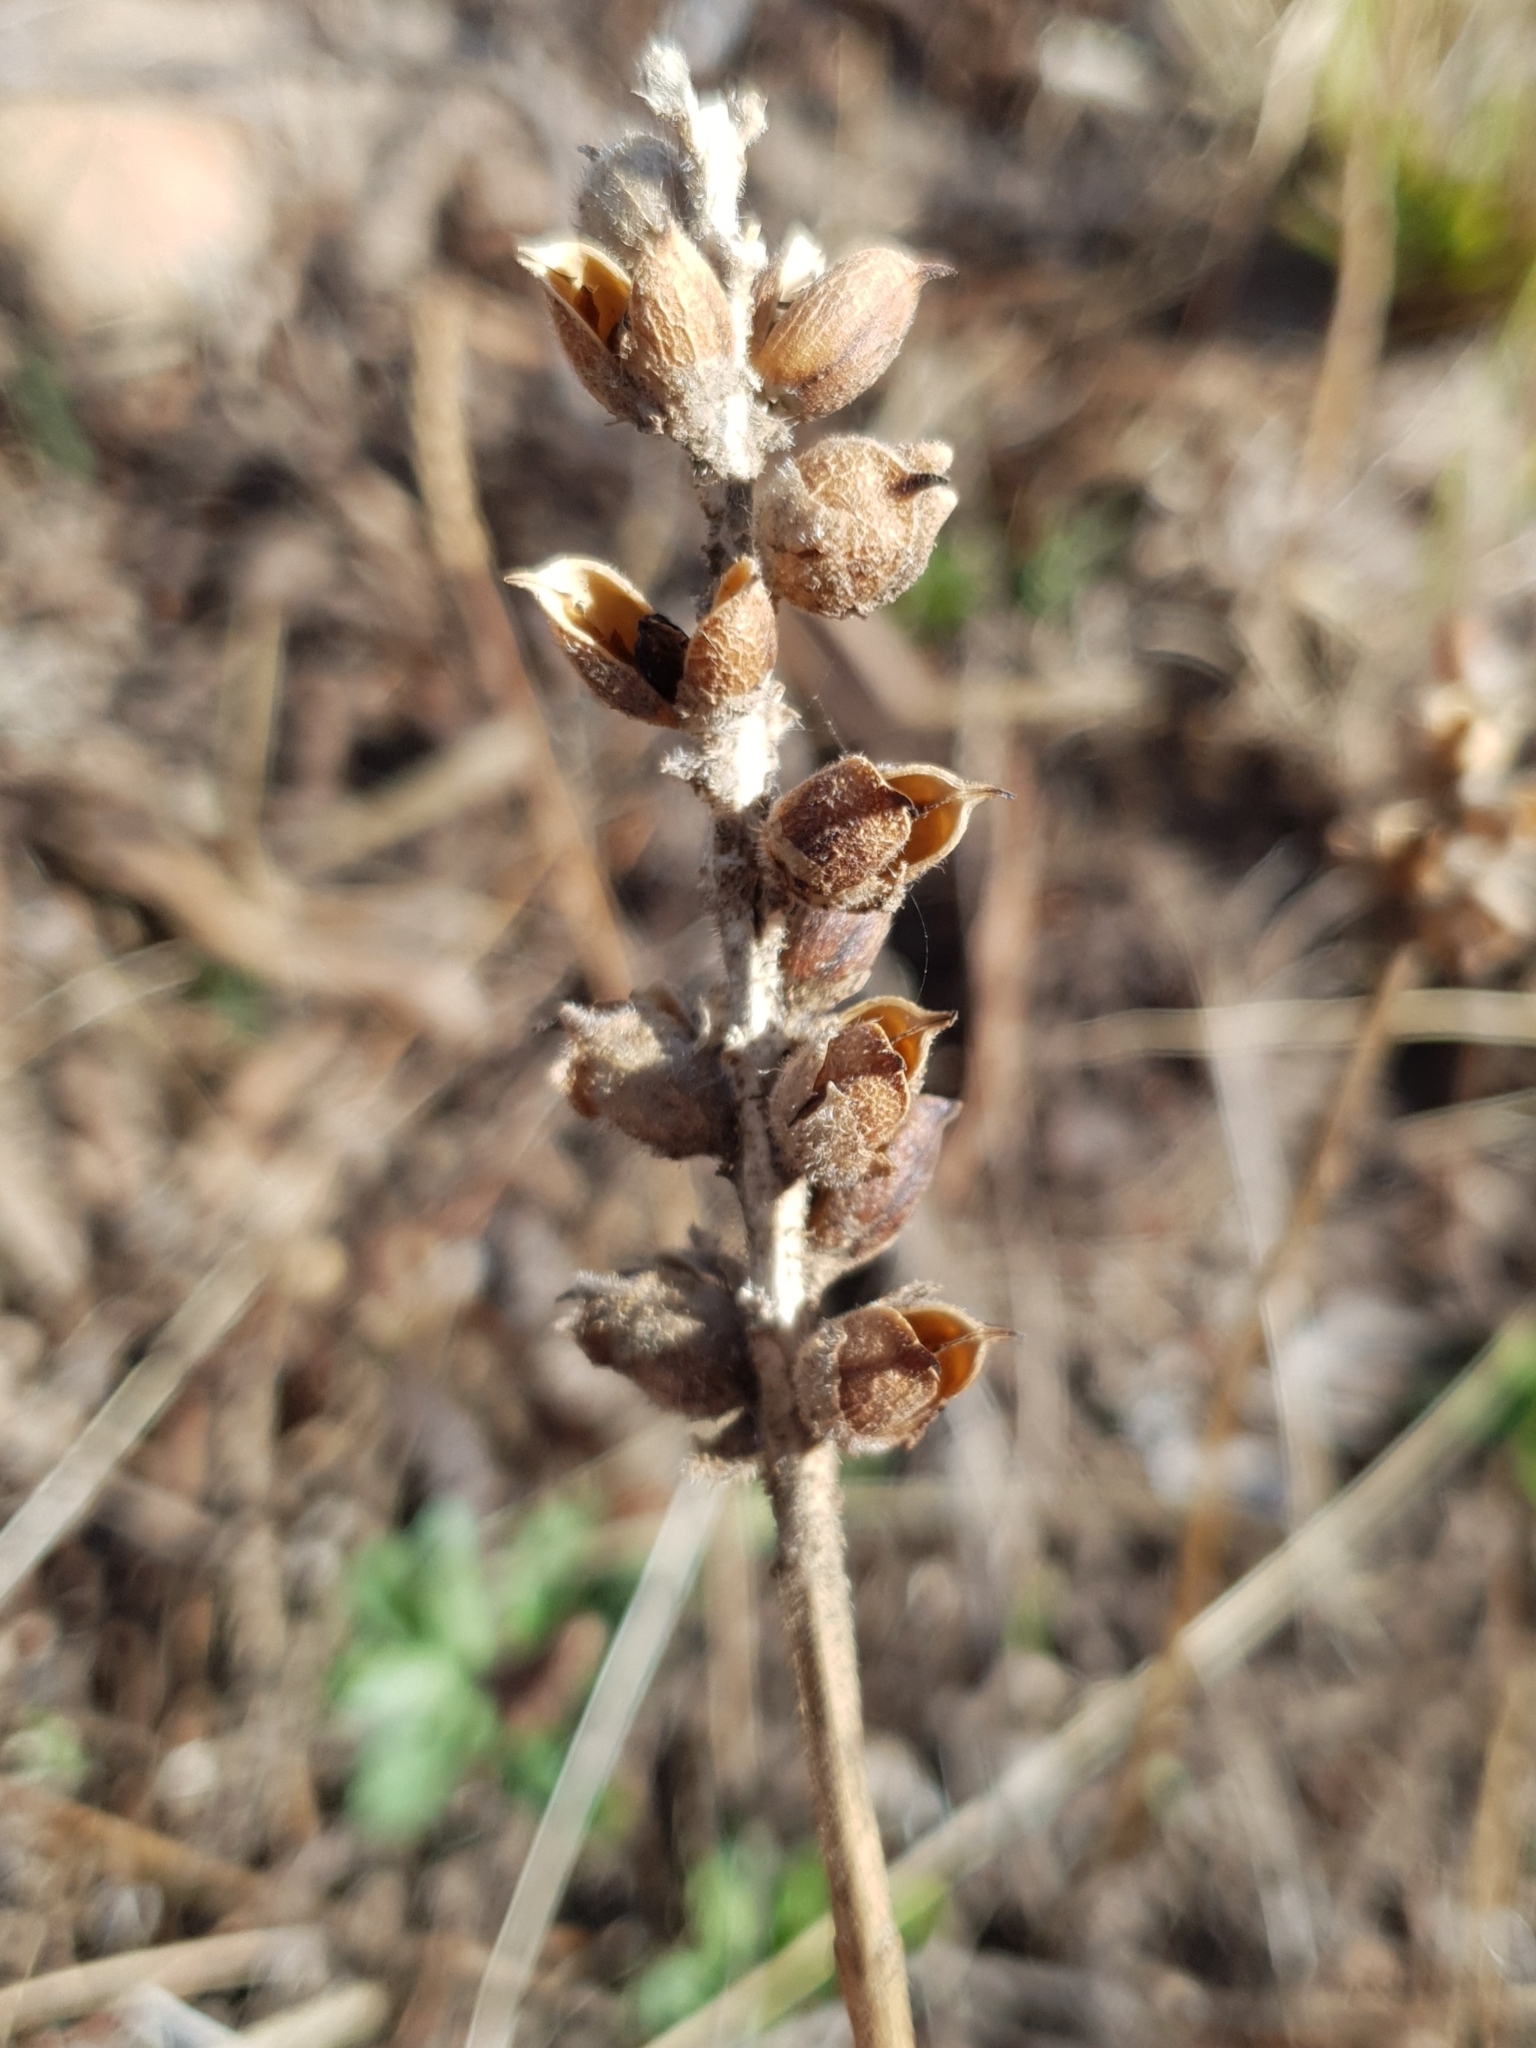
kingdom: Plantae
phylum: Tracheophyta
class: Magnoliopsida
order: Lamiales
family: Orobanchaceae
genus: Bellardia
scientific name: Bellardia trixago
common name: Mediterranean lineseed
